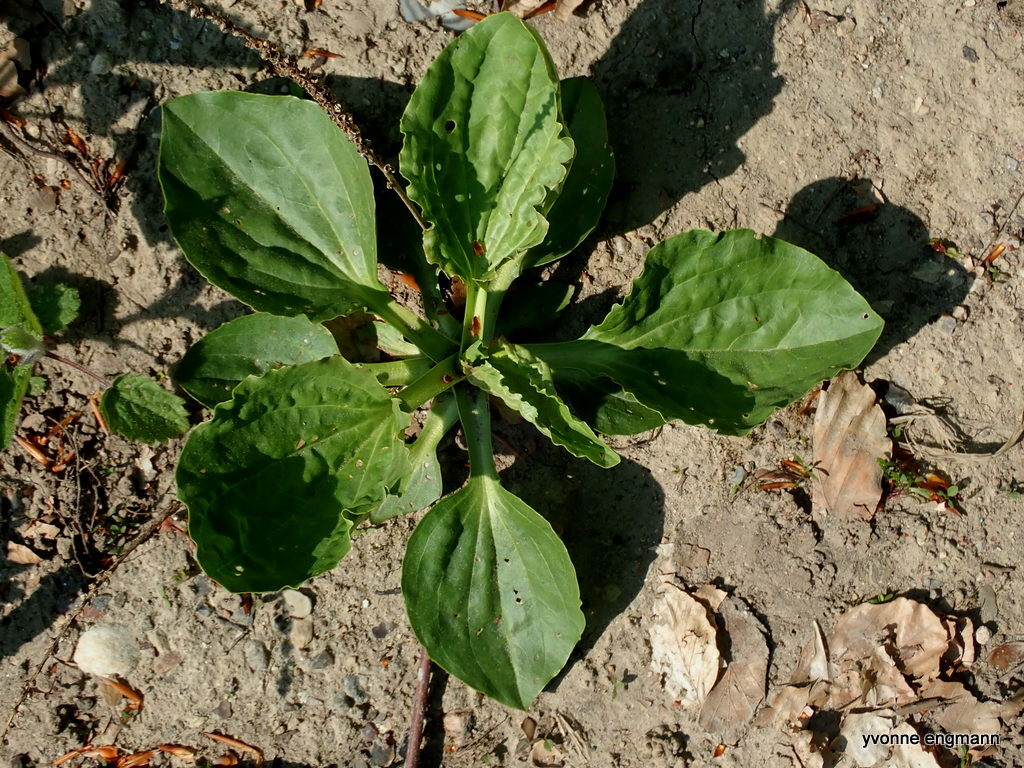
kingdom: Plantae
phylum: Tracheophyta
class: Magnoliopsida
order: Lamiales
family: Plantaginaceae
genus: Plantago
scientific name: Plantago major
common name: Common plantain
